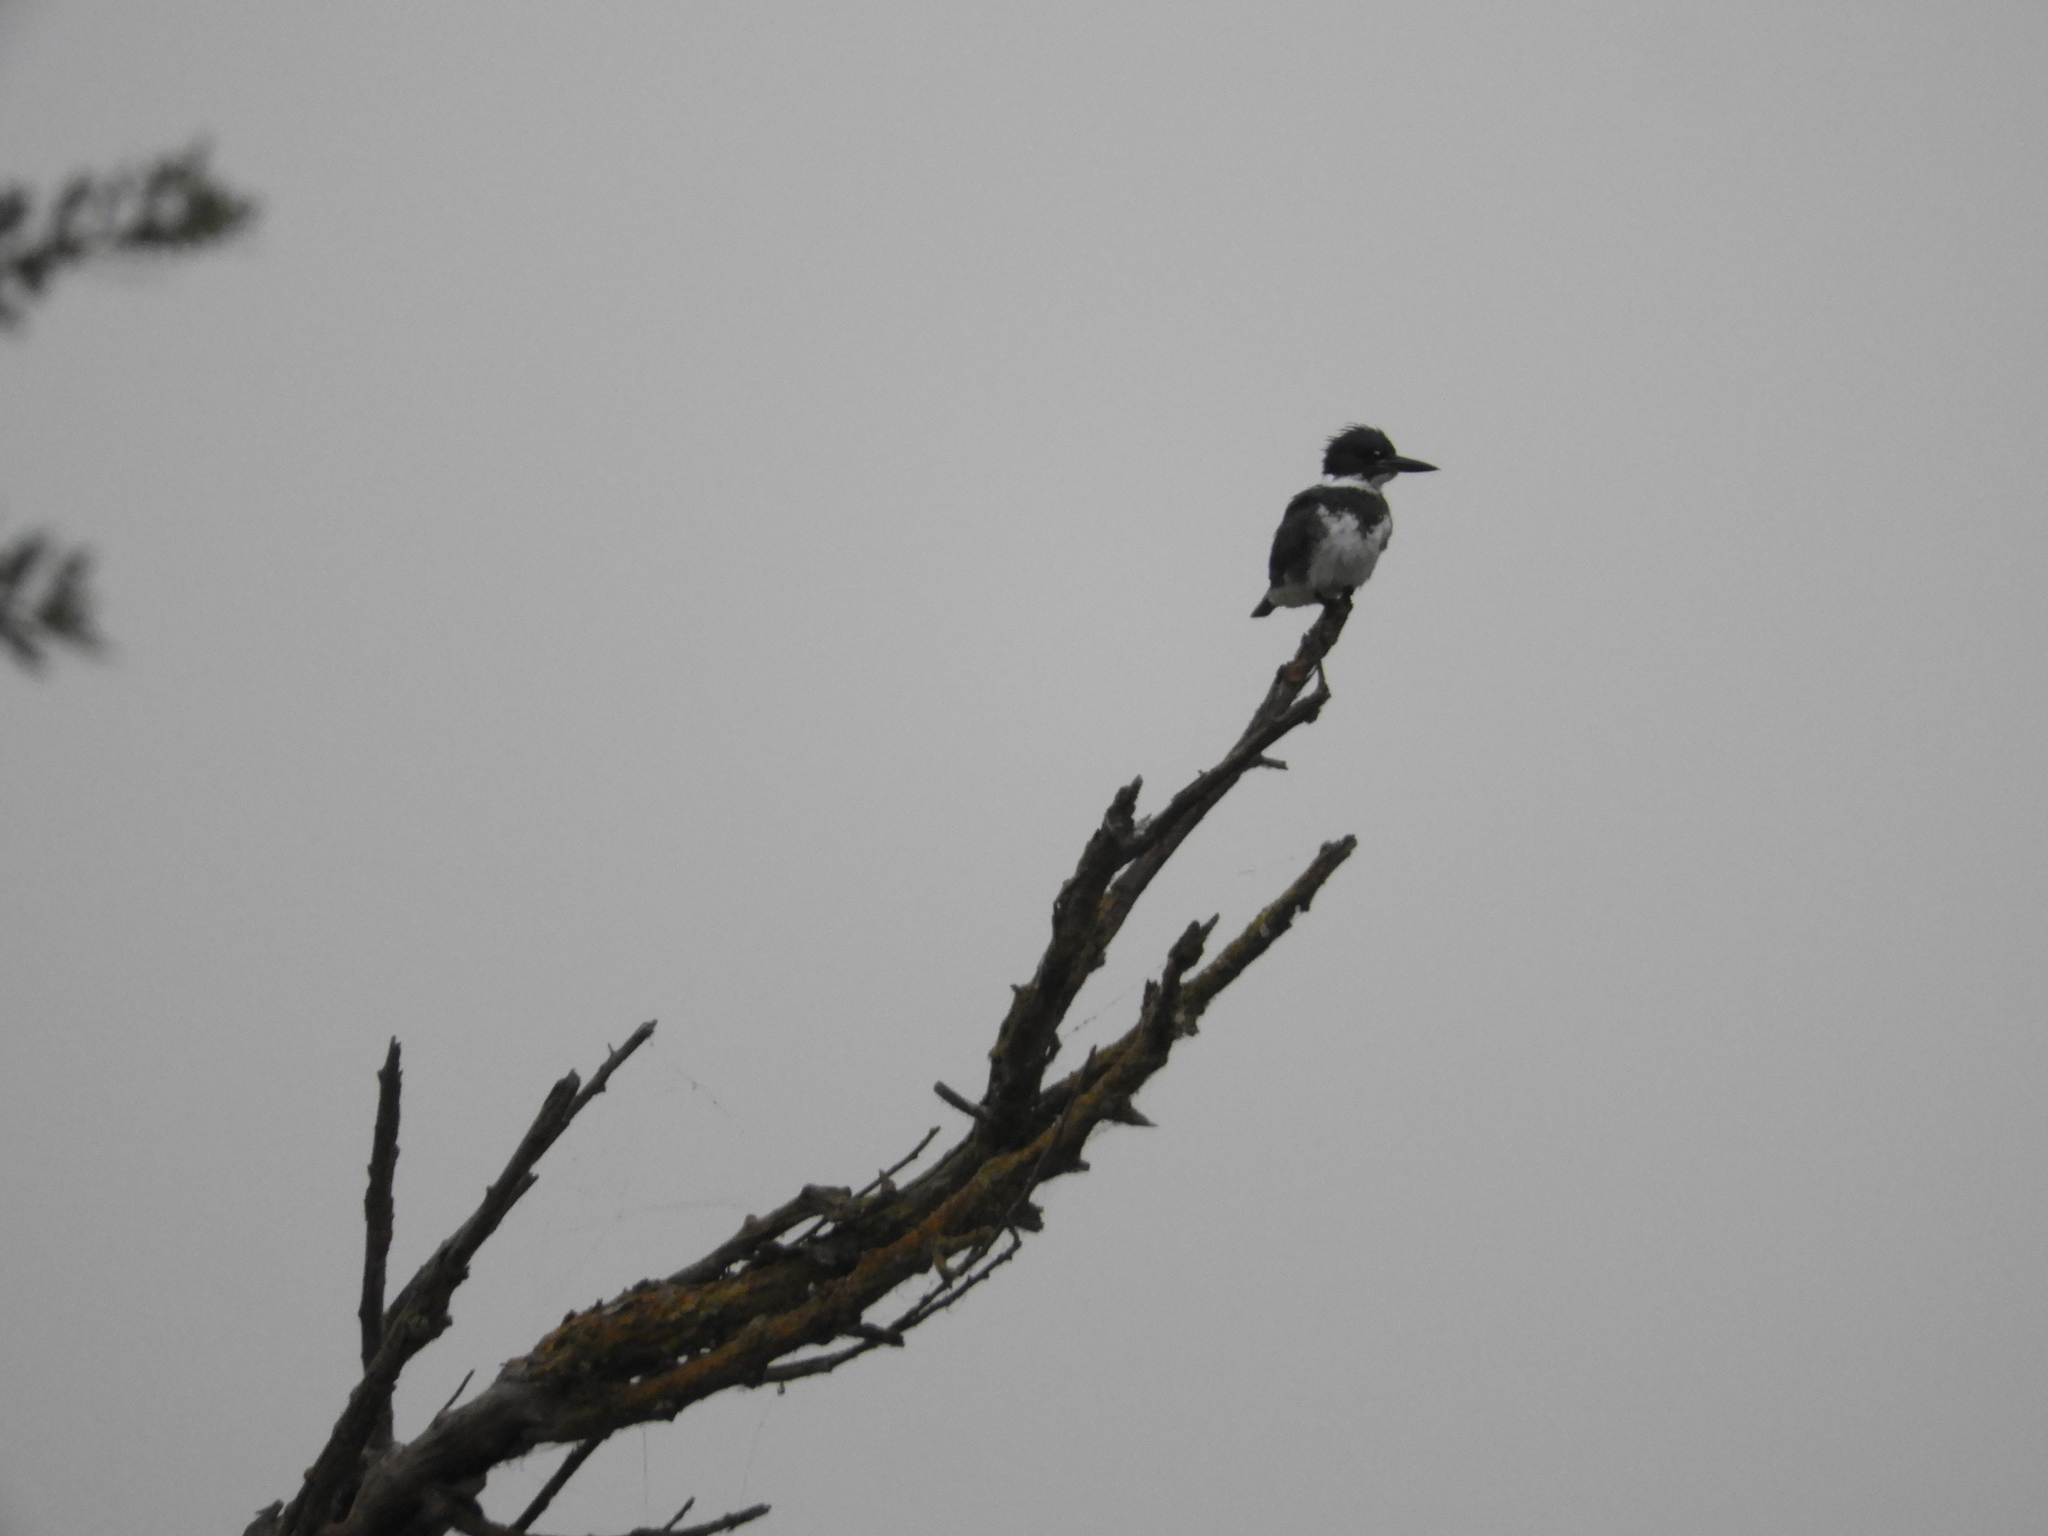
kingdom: Animalia
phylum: Chordata
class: Aves
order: Coraciiformes
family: Alcedinidae
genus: Megaceryle
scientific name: Megaceryle alcyon
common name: Belted kingfisher
